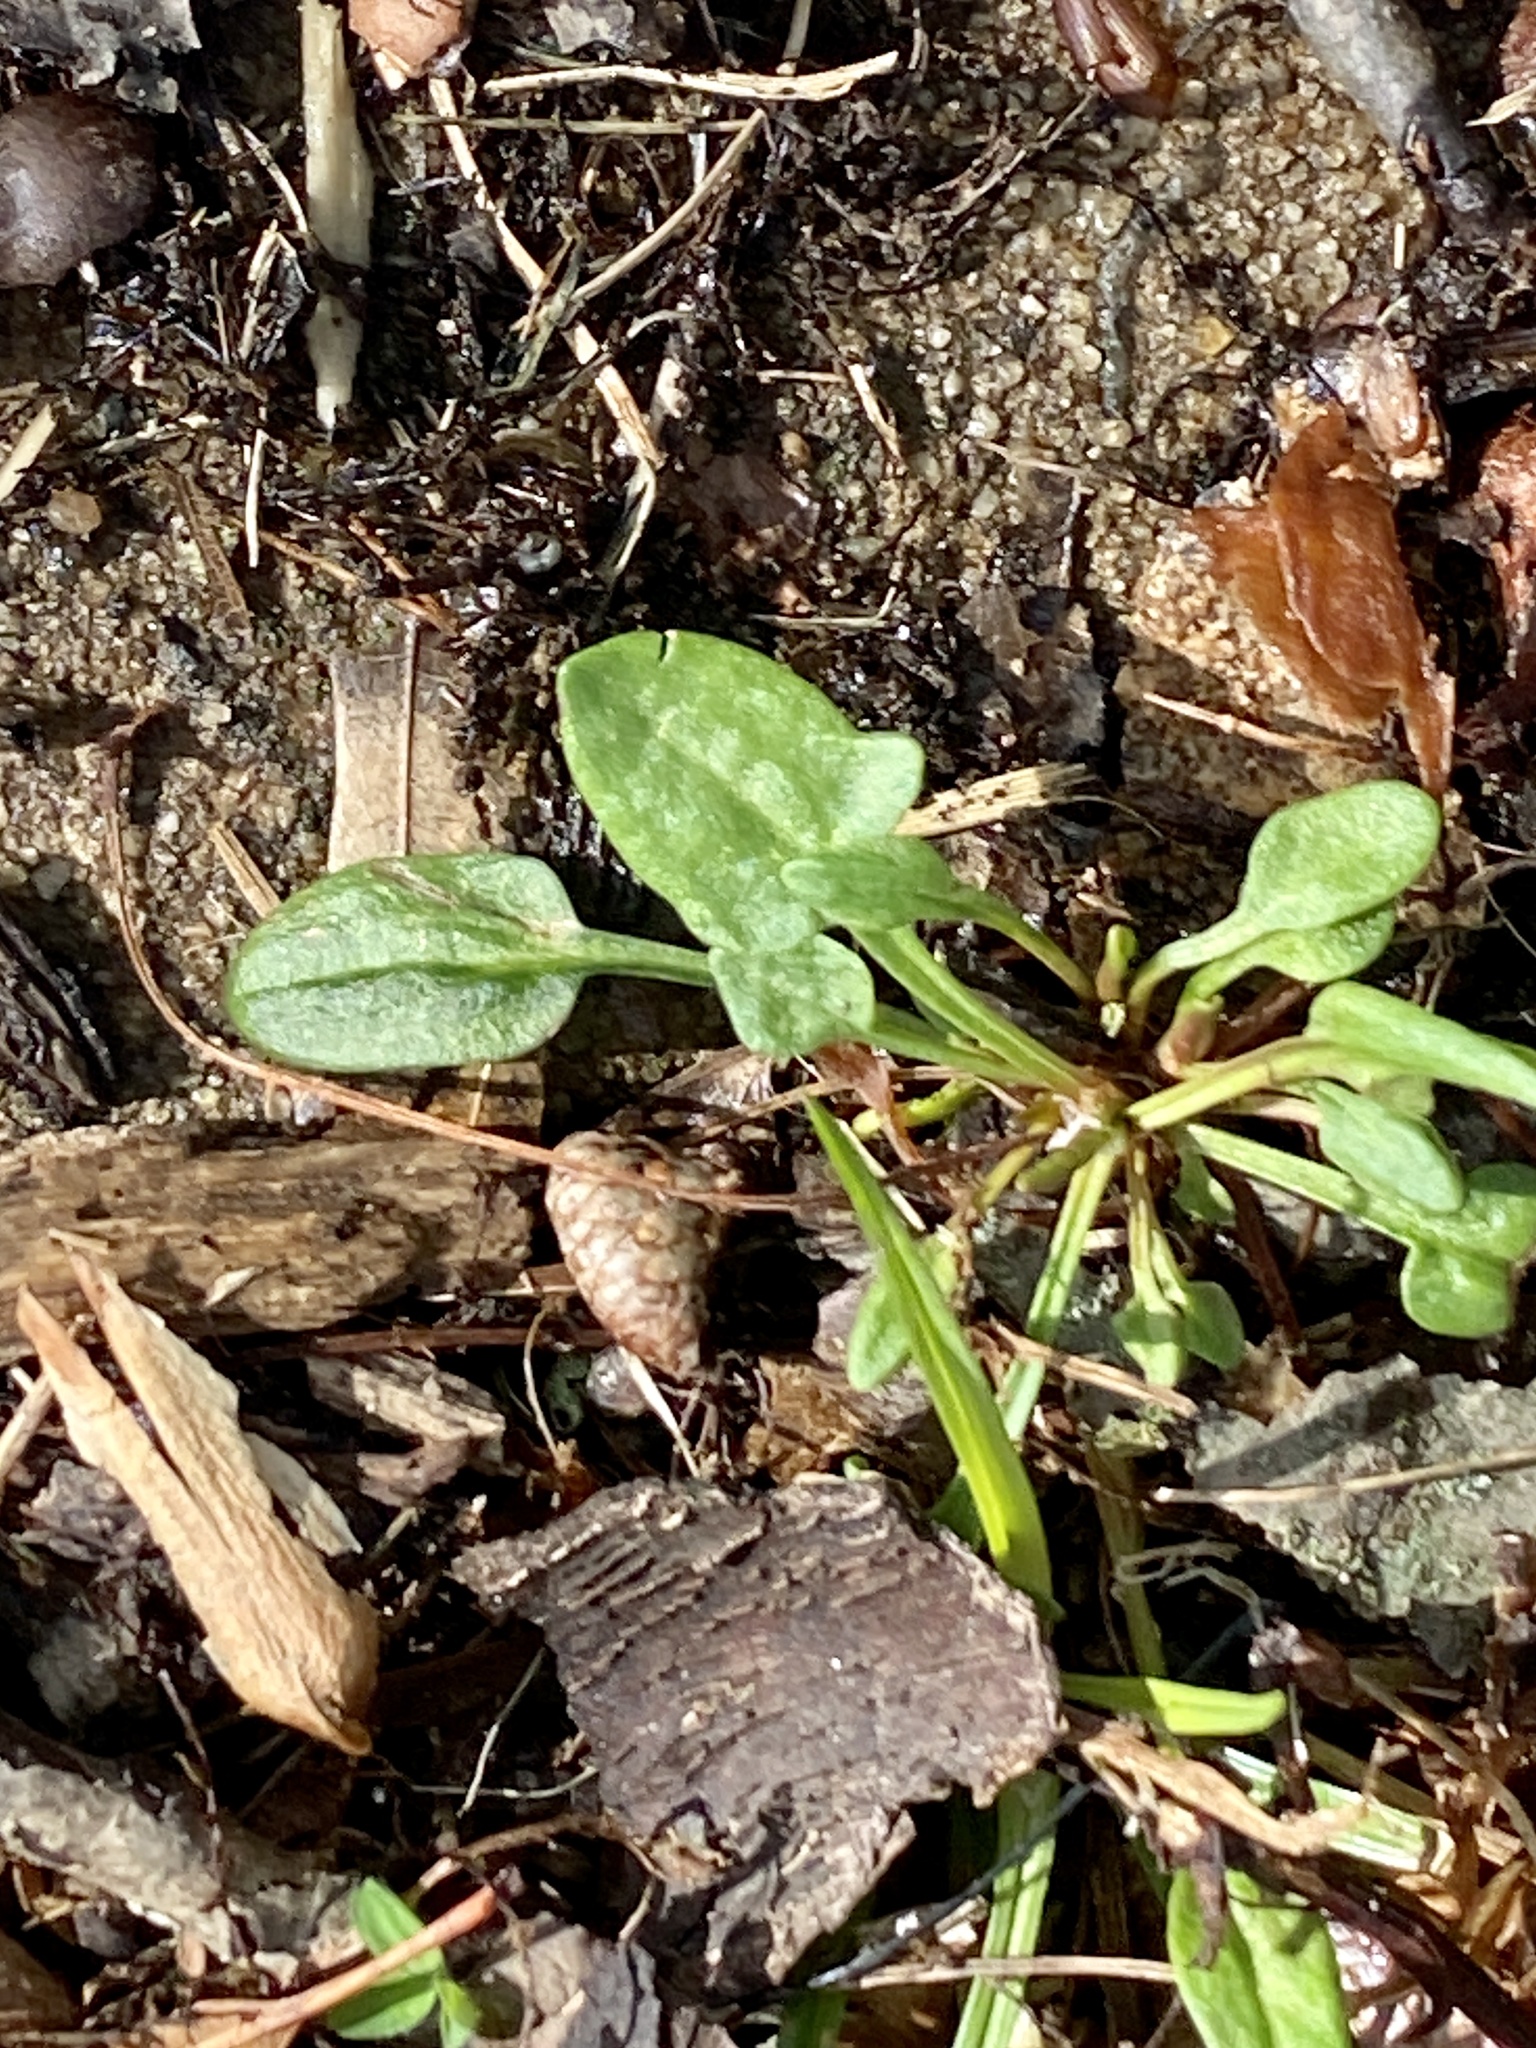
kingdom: Plantae
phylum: Tracheophyta
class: Magnoliopsida
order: Caryophyllales
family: Polygonaceae
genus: Rumex
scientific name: Rumex acetosella
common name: Common sheep sorrel
